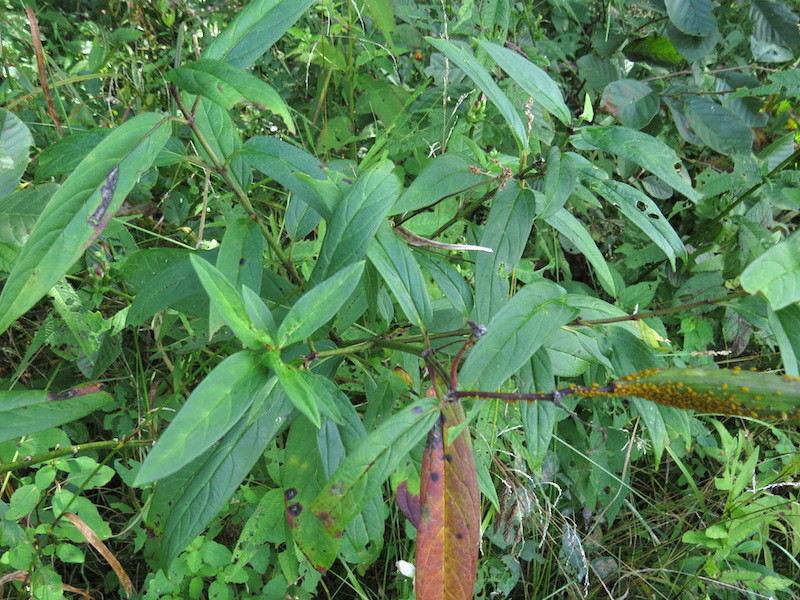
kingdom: Animalia
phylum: Arthropoda
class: Insecta
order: Hemiptera
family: Aphididae
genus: Aphis
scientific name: Aphis nerii
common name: Oleander aphid
